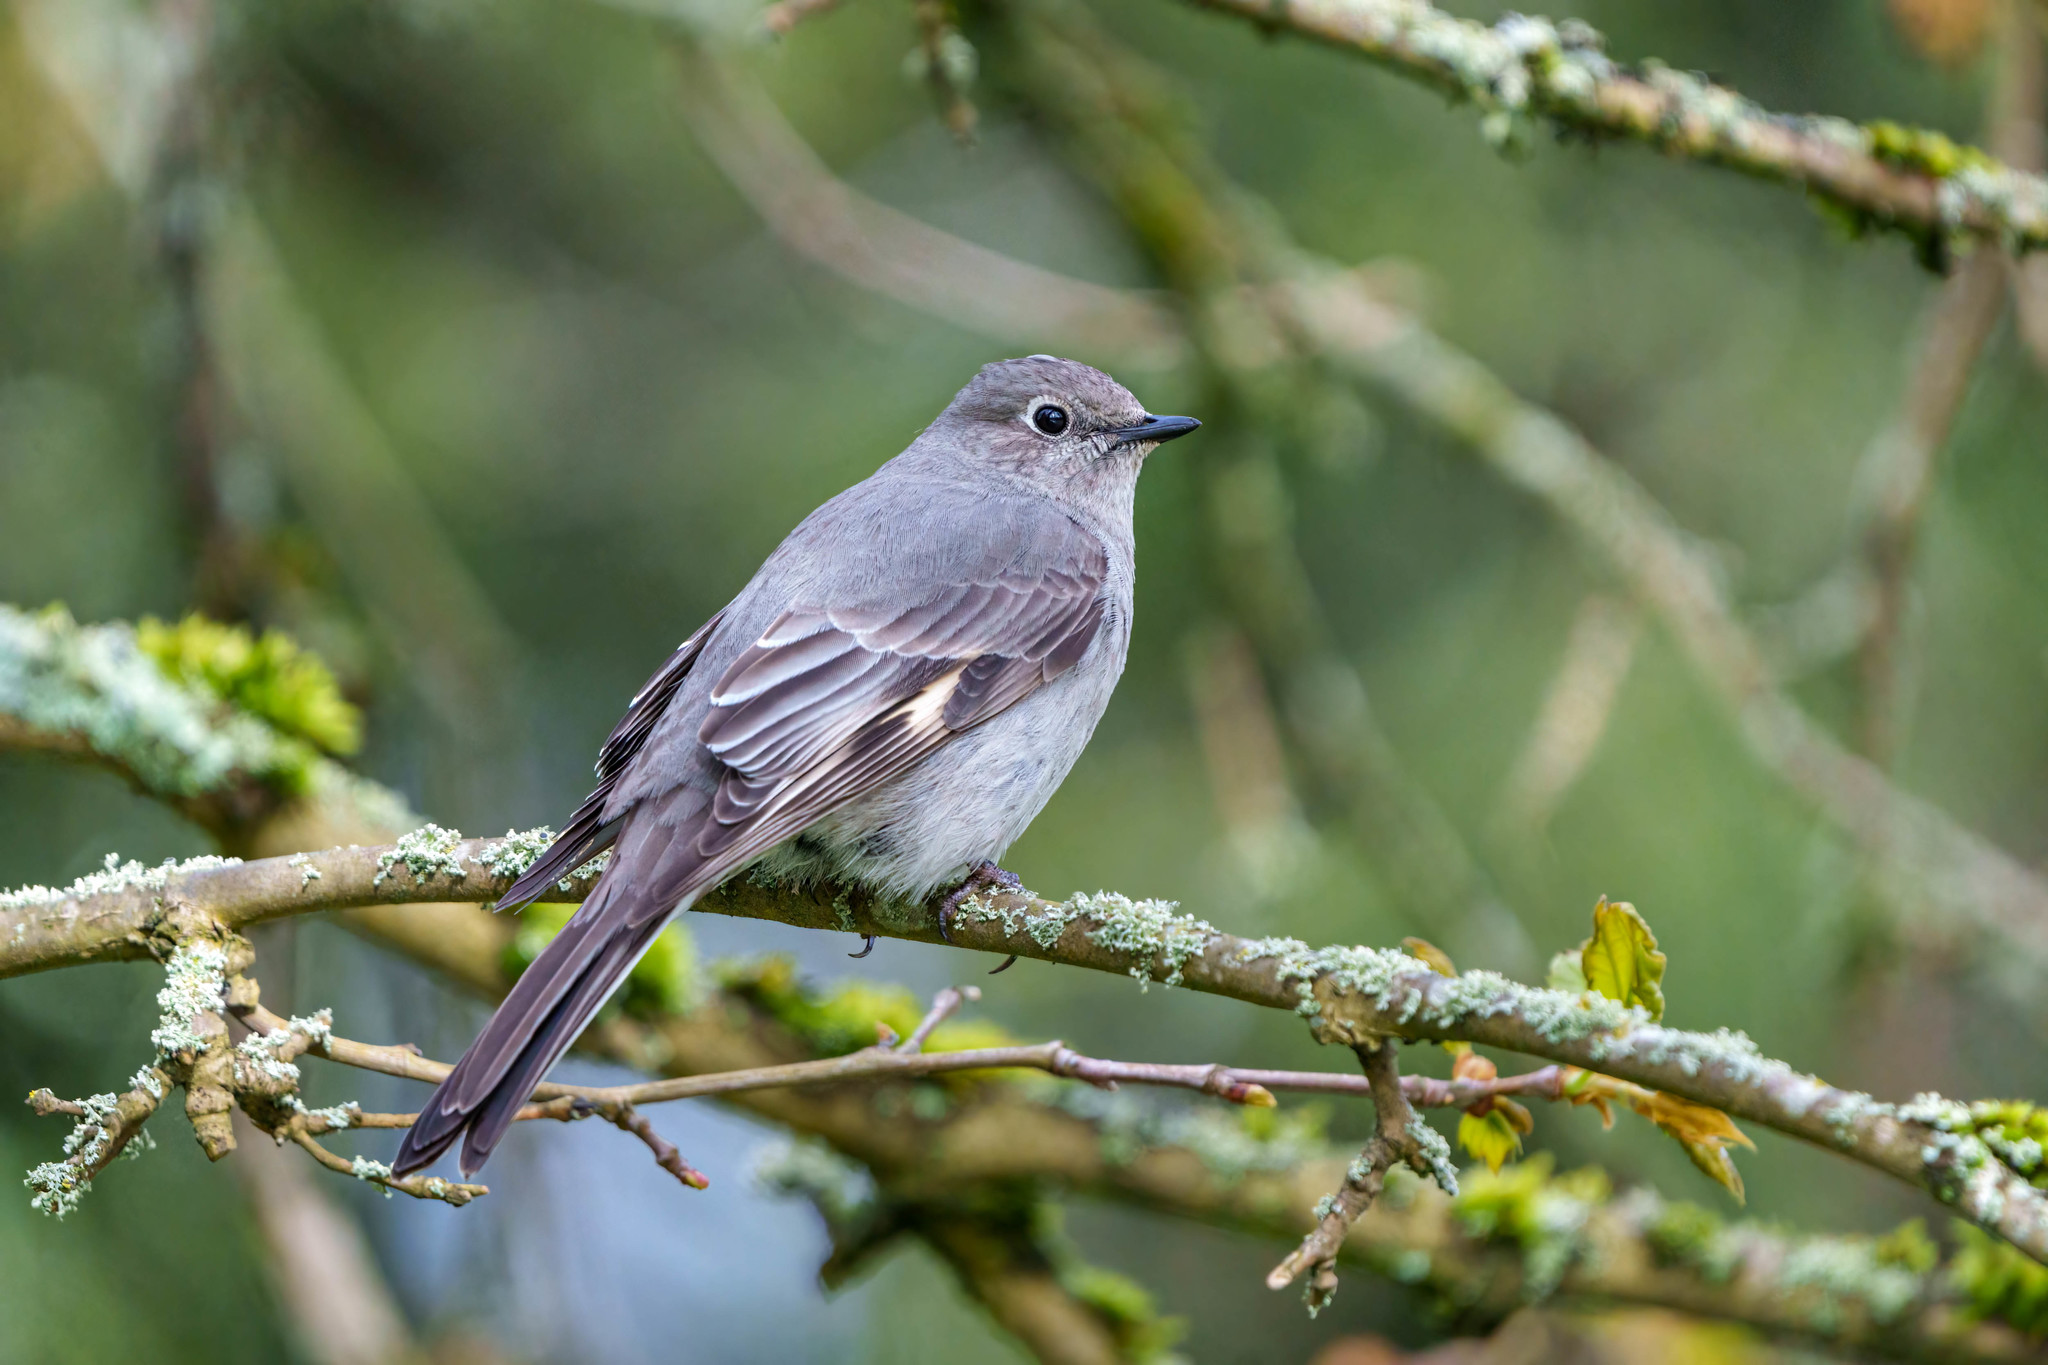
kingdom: Animalia
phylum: Chordata
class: Aves
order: Passeriformes
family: Turdidae
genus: Myadestes
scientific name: Myadestes townsendi
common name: Townsend's solitaire
